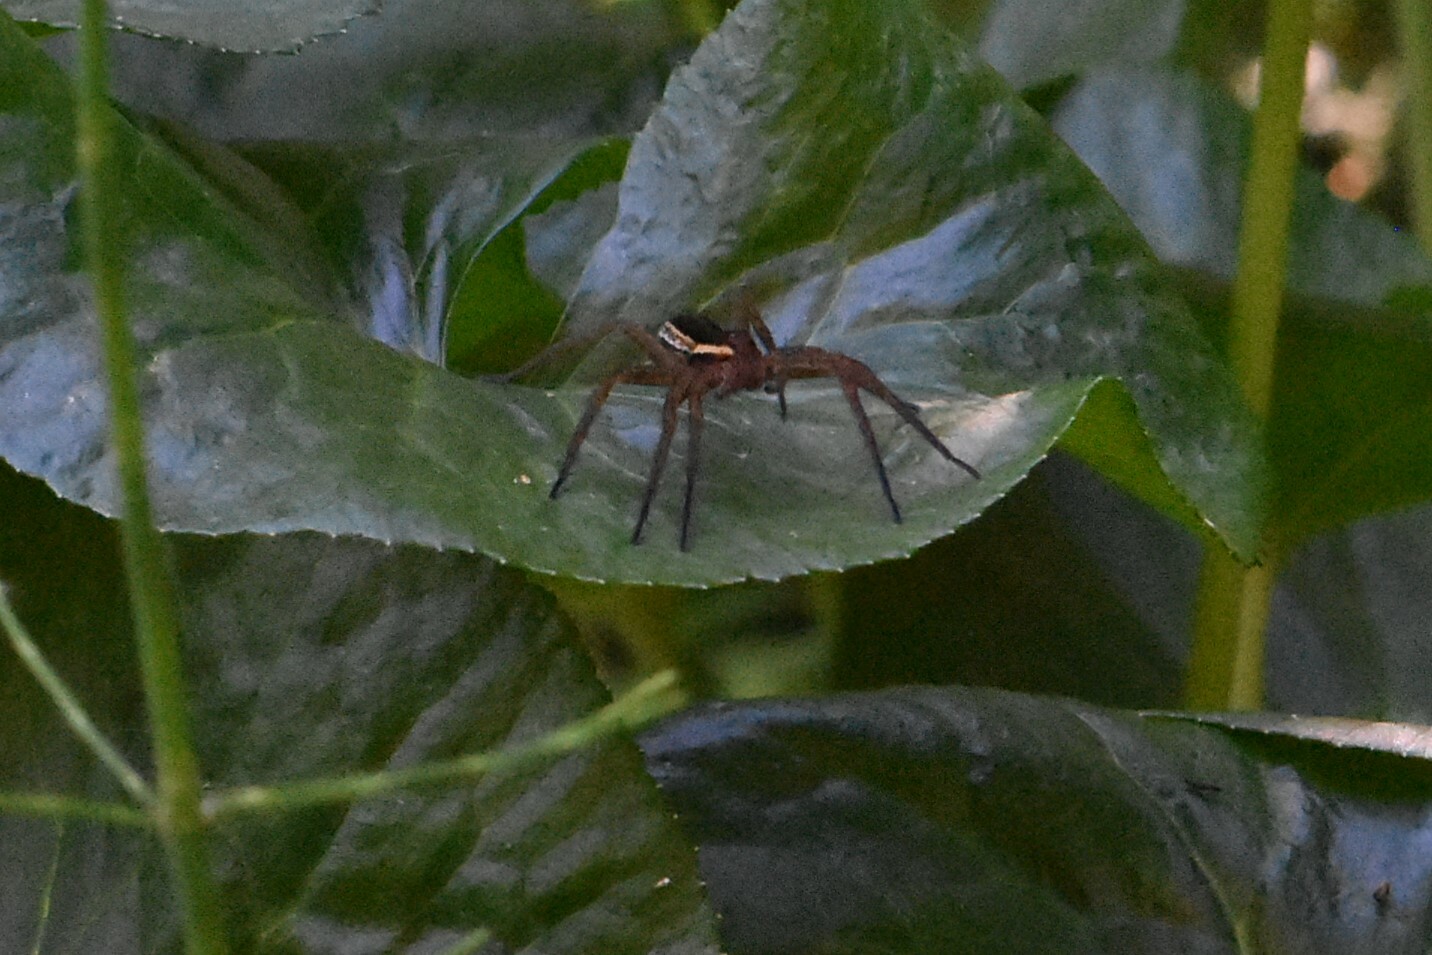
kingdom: Animalia
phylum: Arthropoda
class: Arachnida
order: Araneae
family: Pisauridae
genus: Dolomedes
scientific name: Dolomedes
